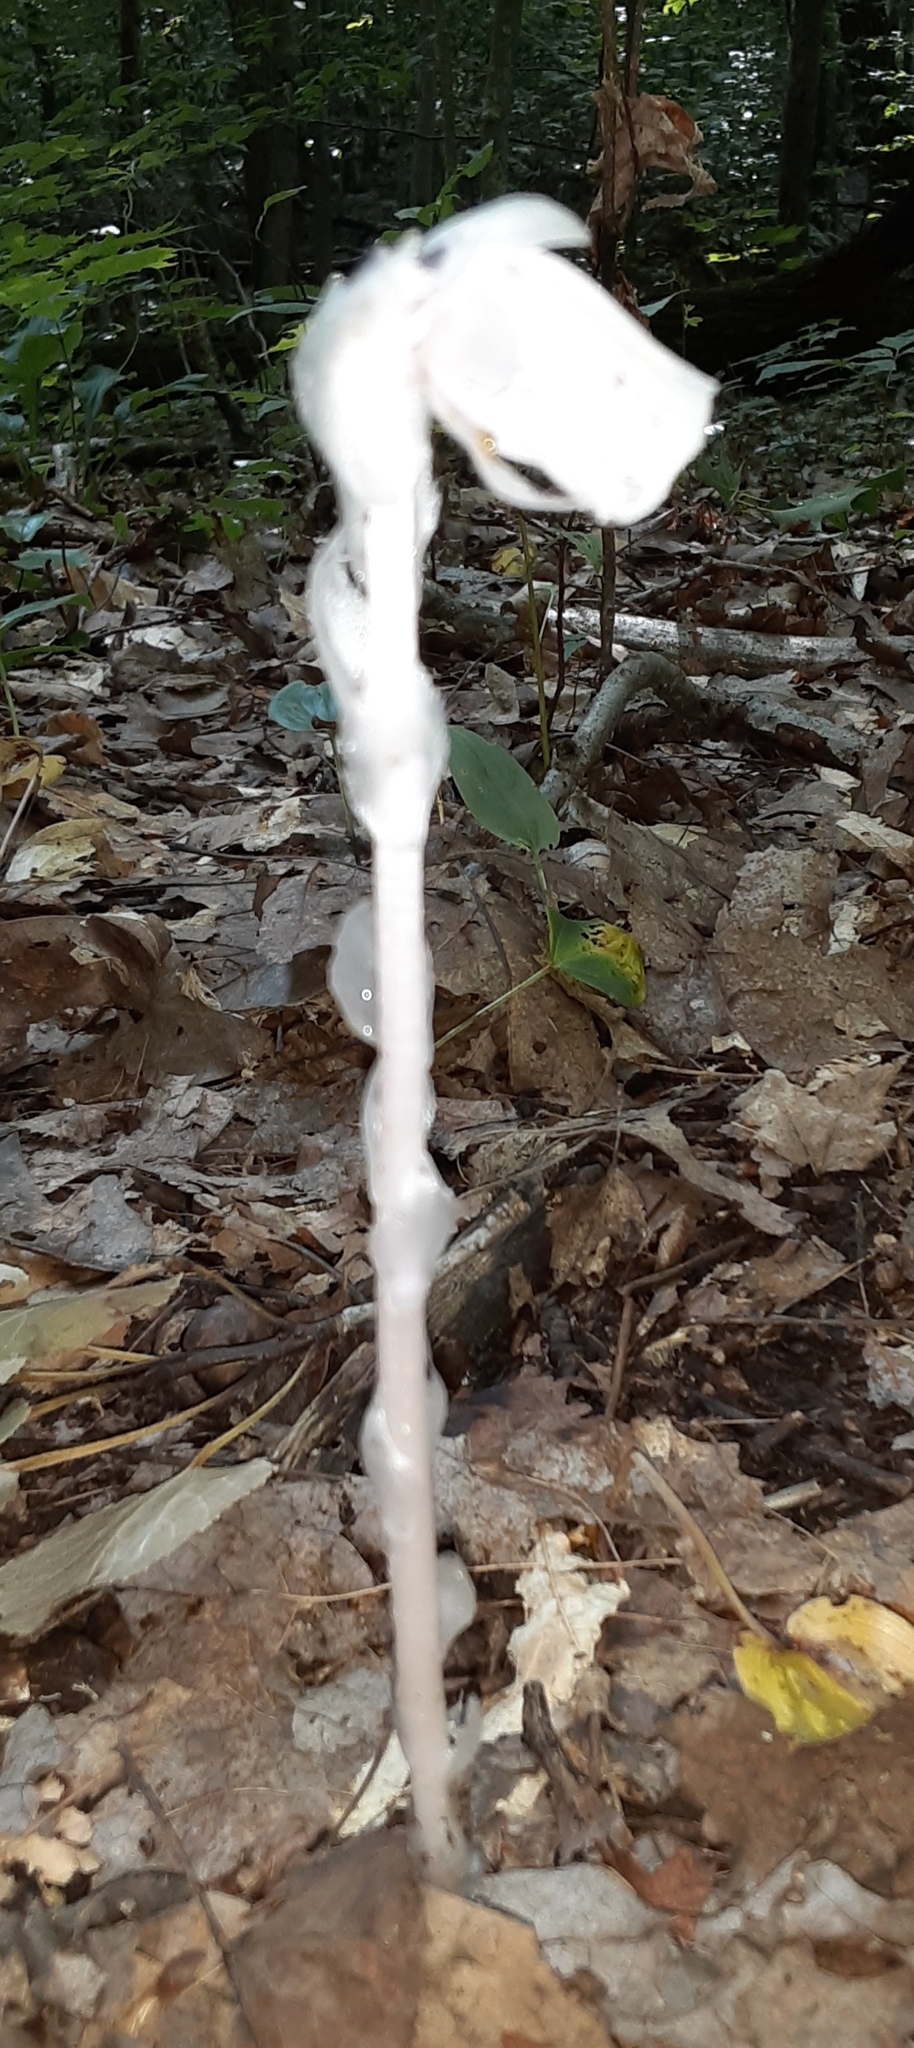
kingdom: Plantae
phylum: Tracheophyta
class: Magnoliopsida
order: Ericales
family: Ericaceae
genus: Monotropa
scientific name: Monotropa uniflora
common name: Convulsion root
